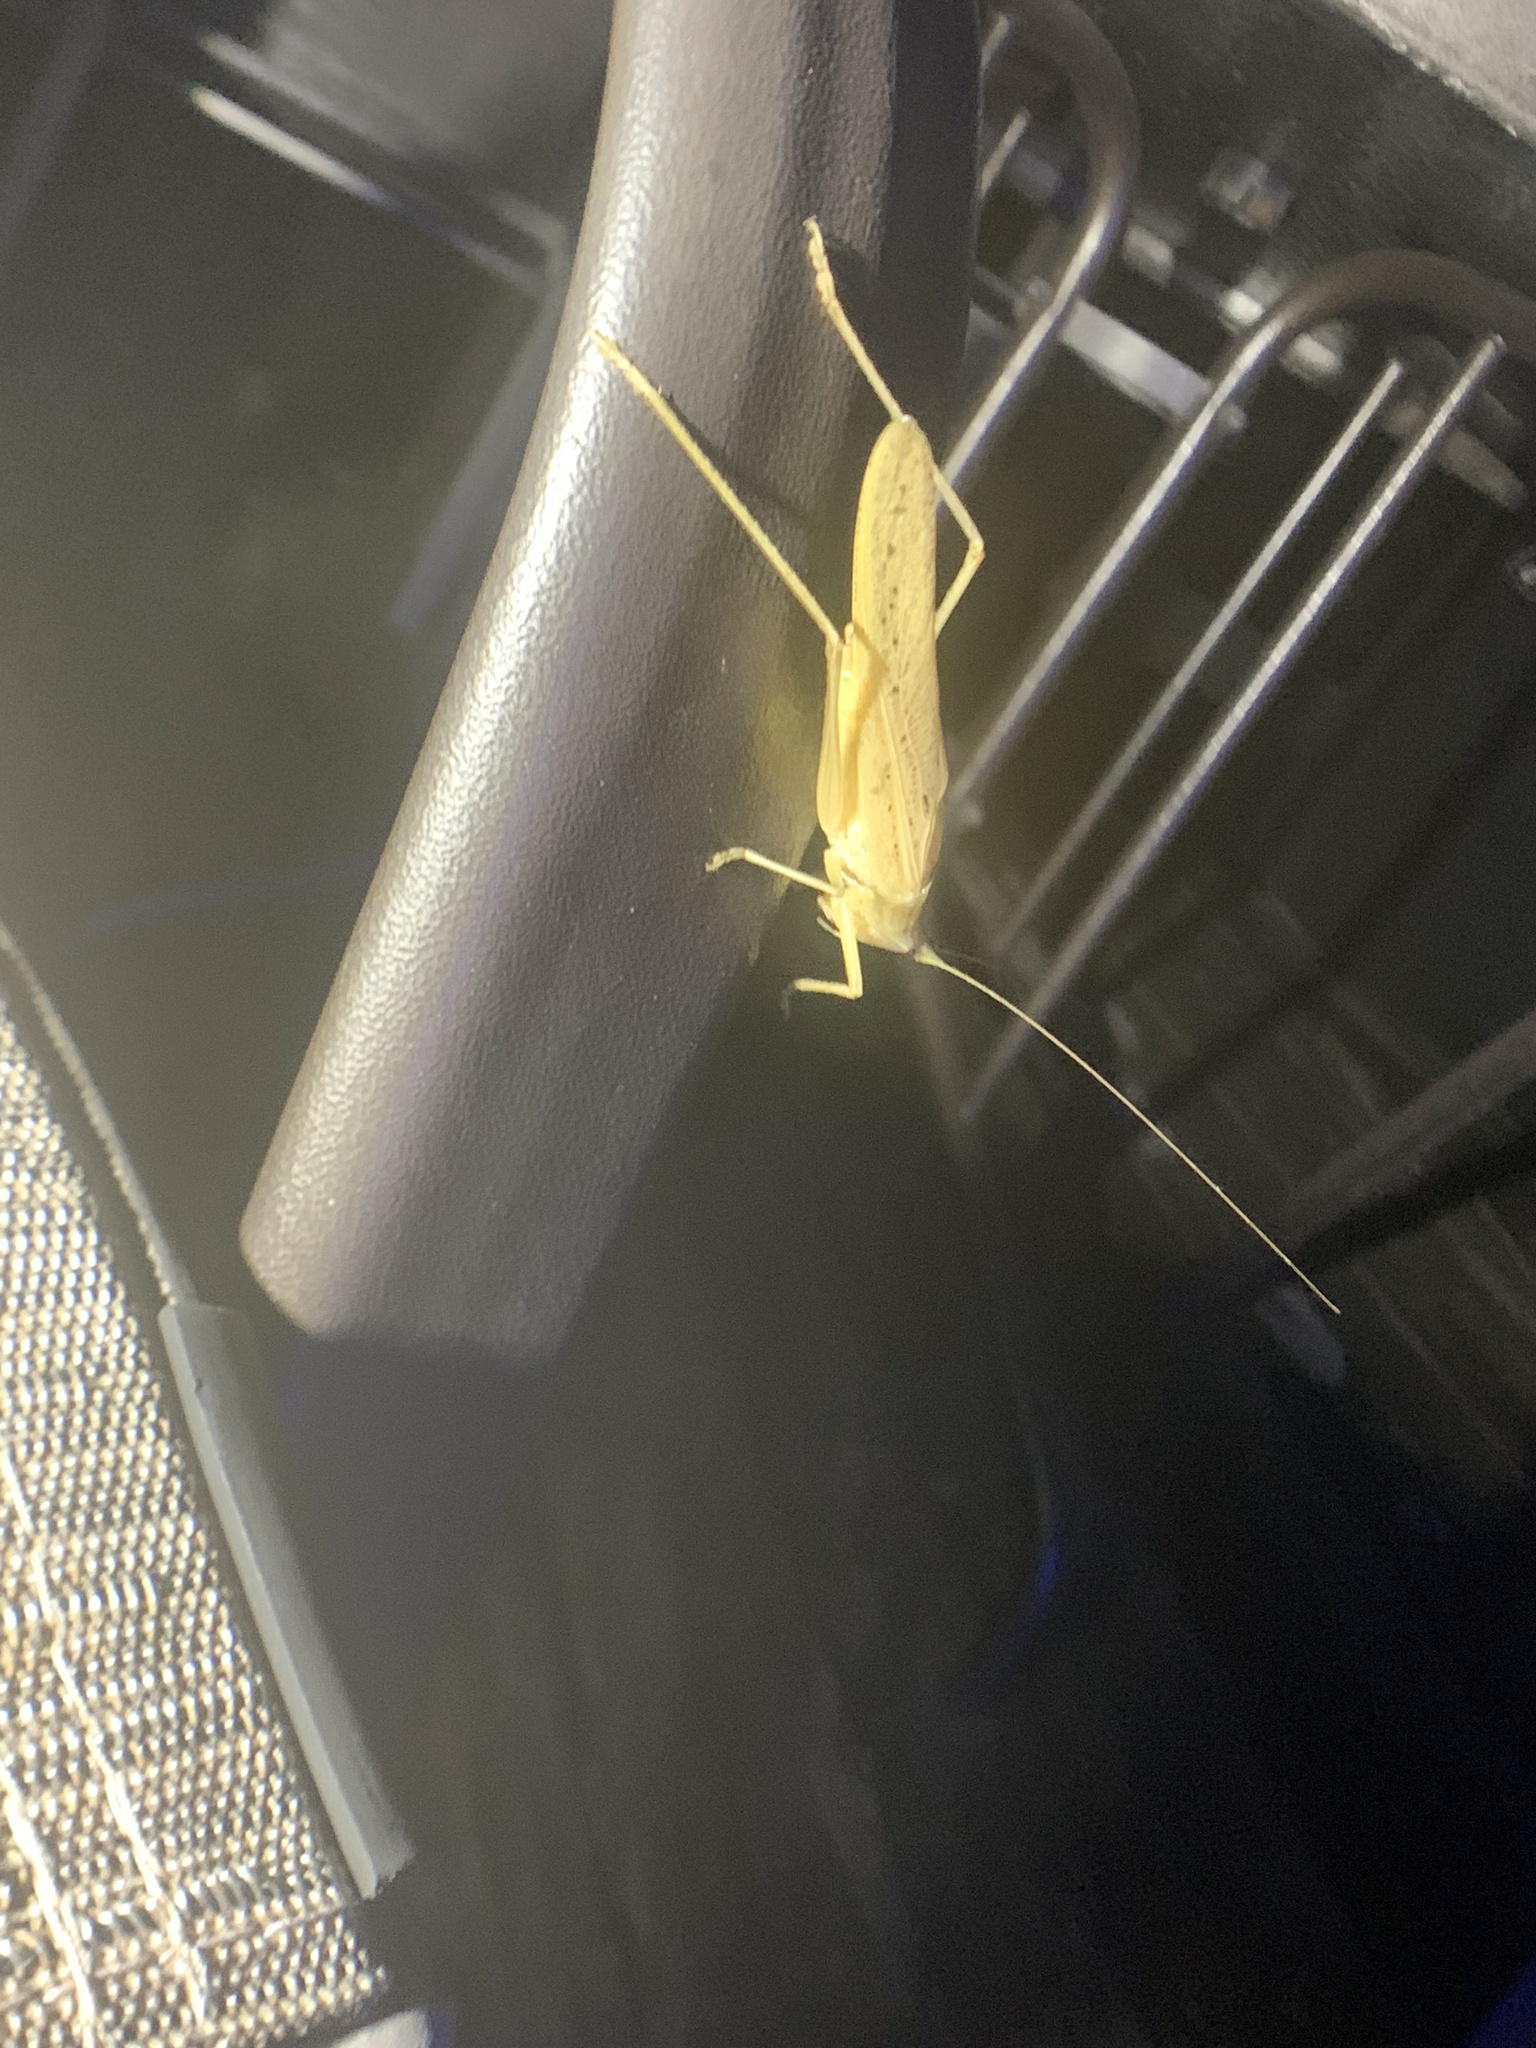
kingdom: Animalia
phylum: Arthropoda
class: Insecta
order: Orthoptera
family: Tettigoniidae
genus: Neoconocephalus
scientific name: Neoconocephalus exiliscanorus
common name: Slightly musical conehead
